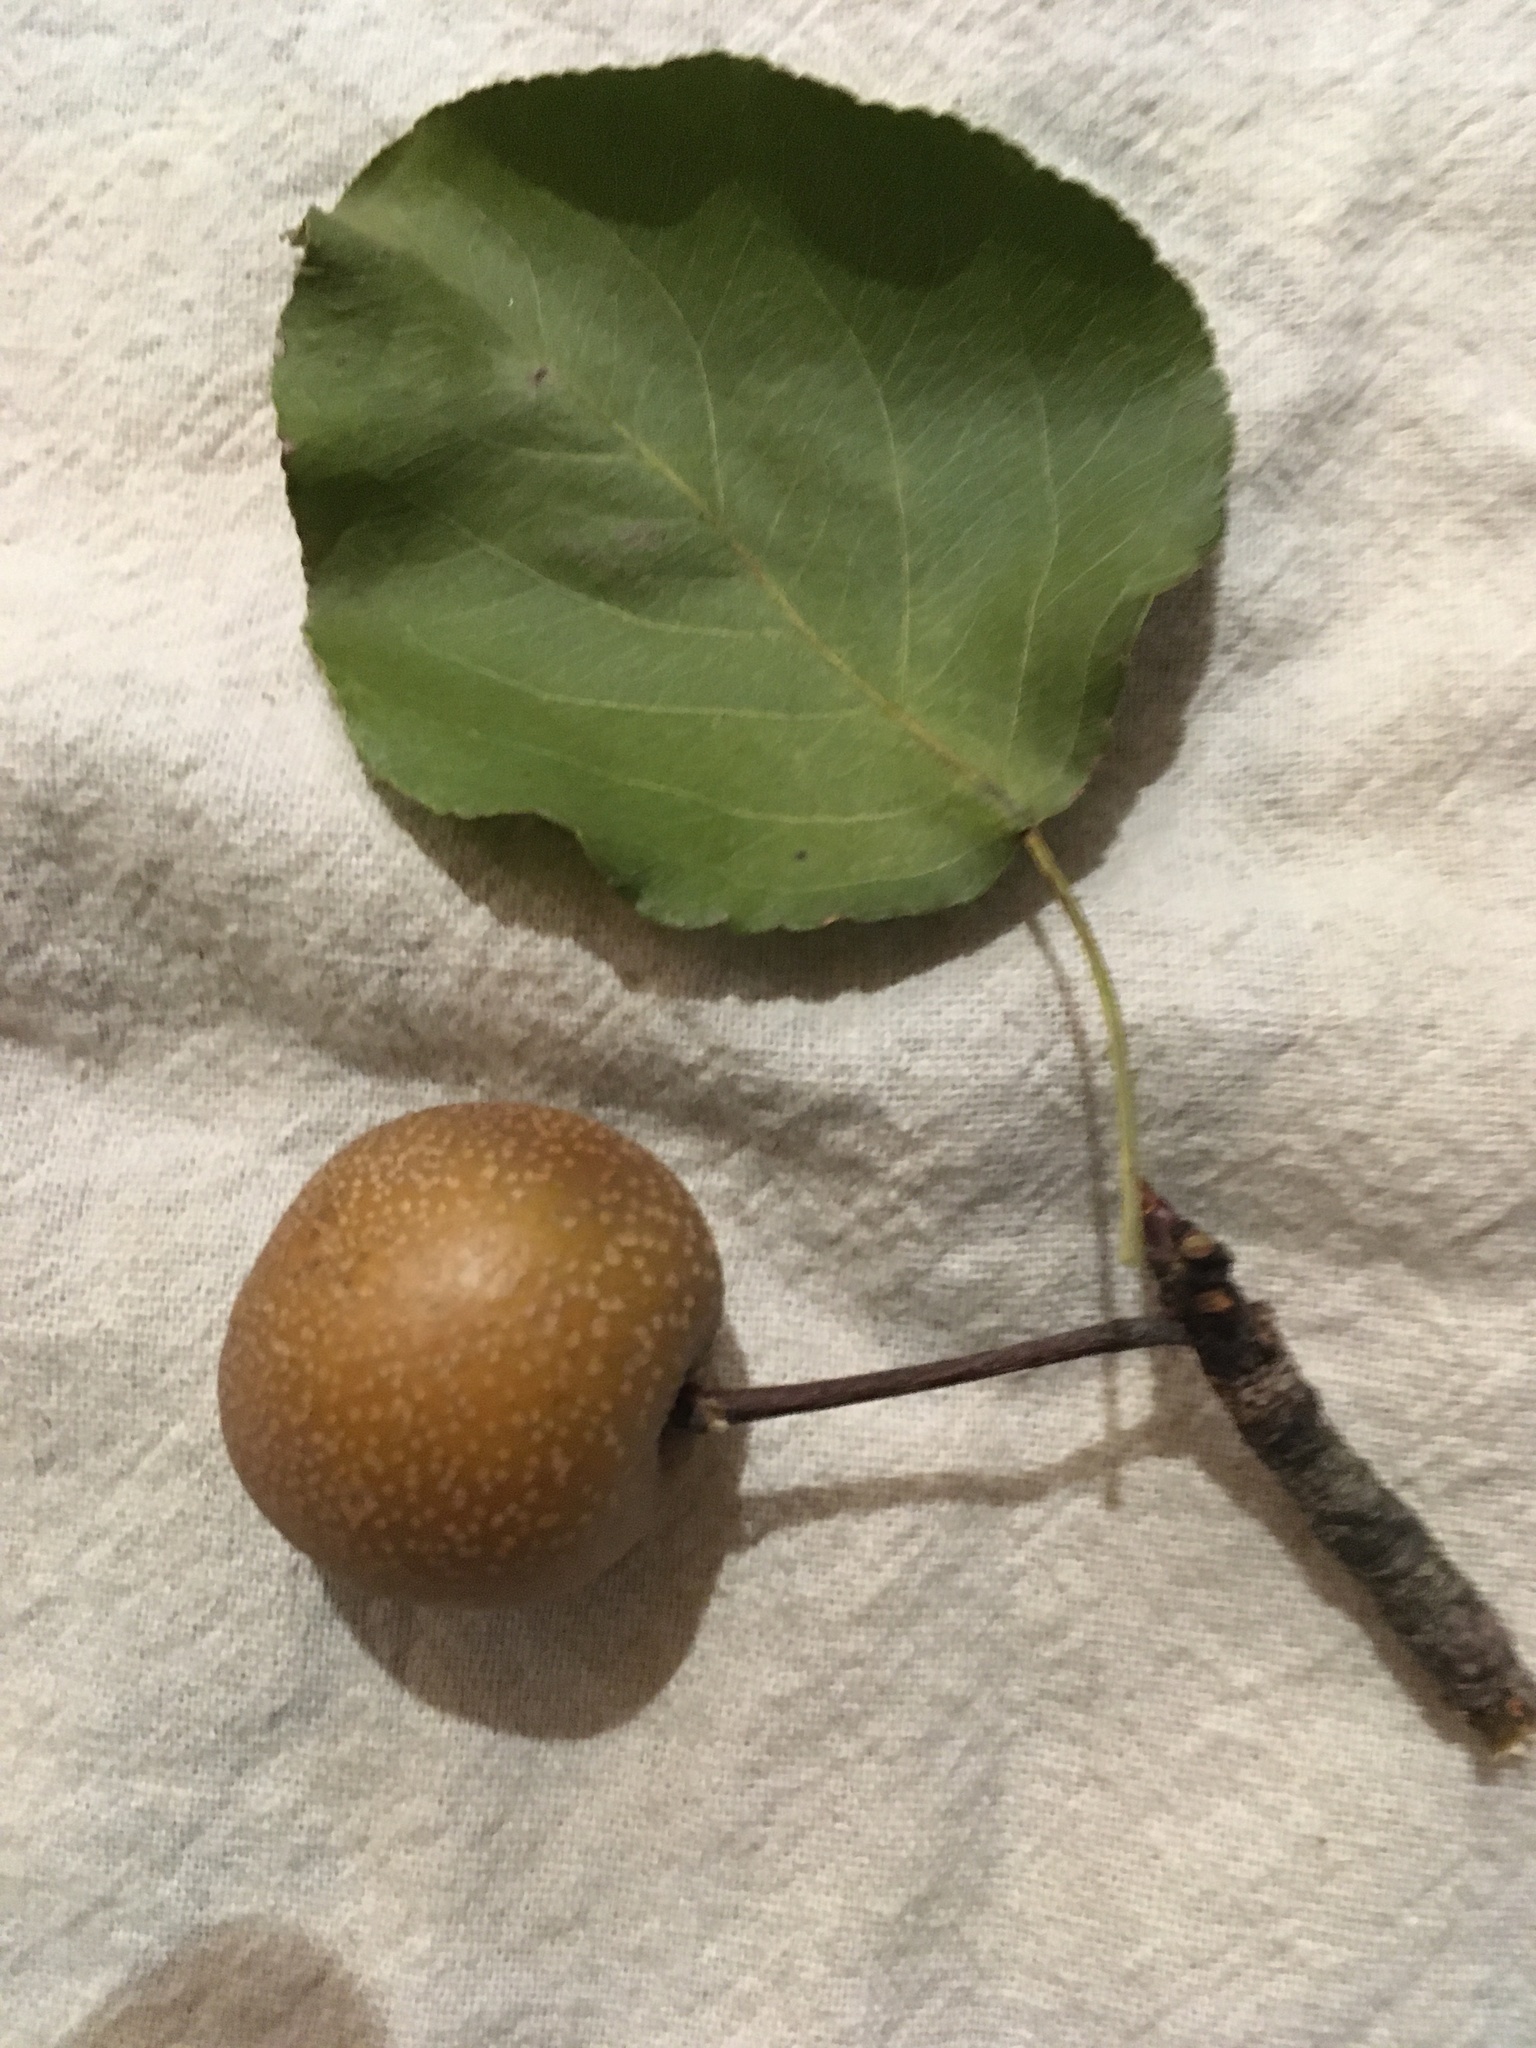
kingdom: Plantae
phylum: Tracheophyta
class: Magnoliopsida
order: Rosales
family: Rosaceae
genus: Pyrus
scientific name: Pyrus calleryana
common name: Callery pear
